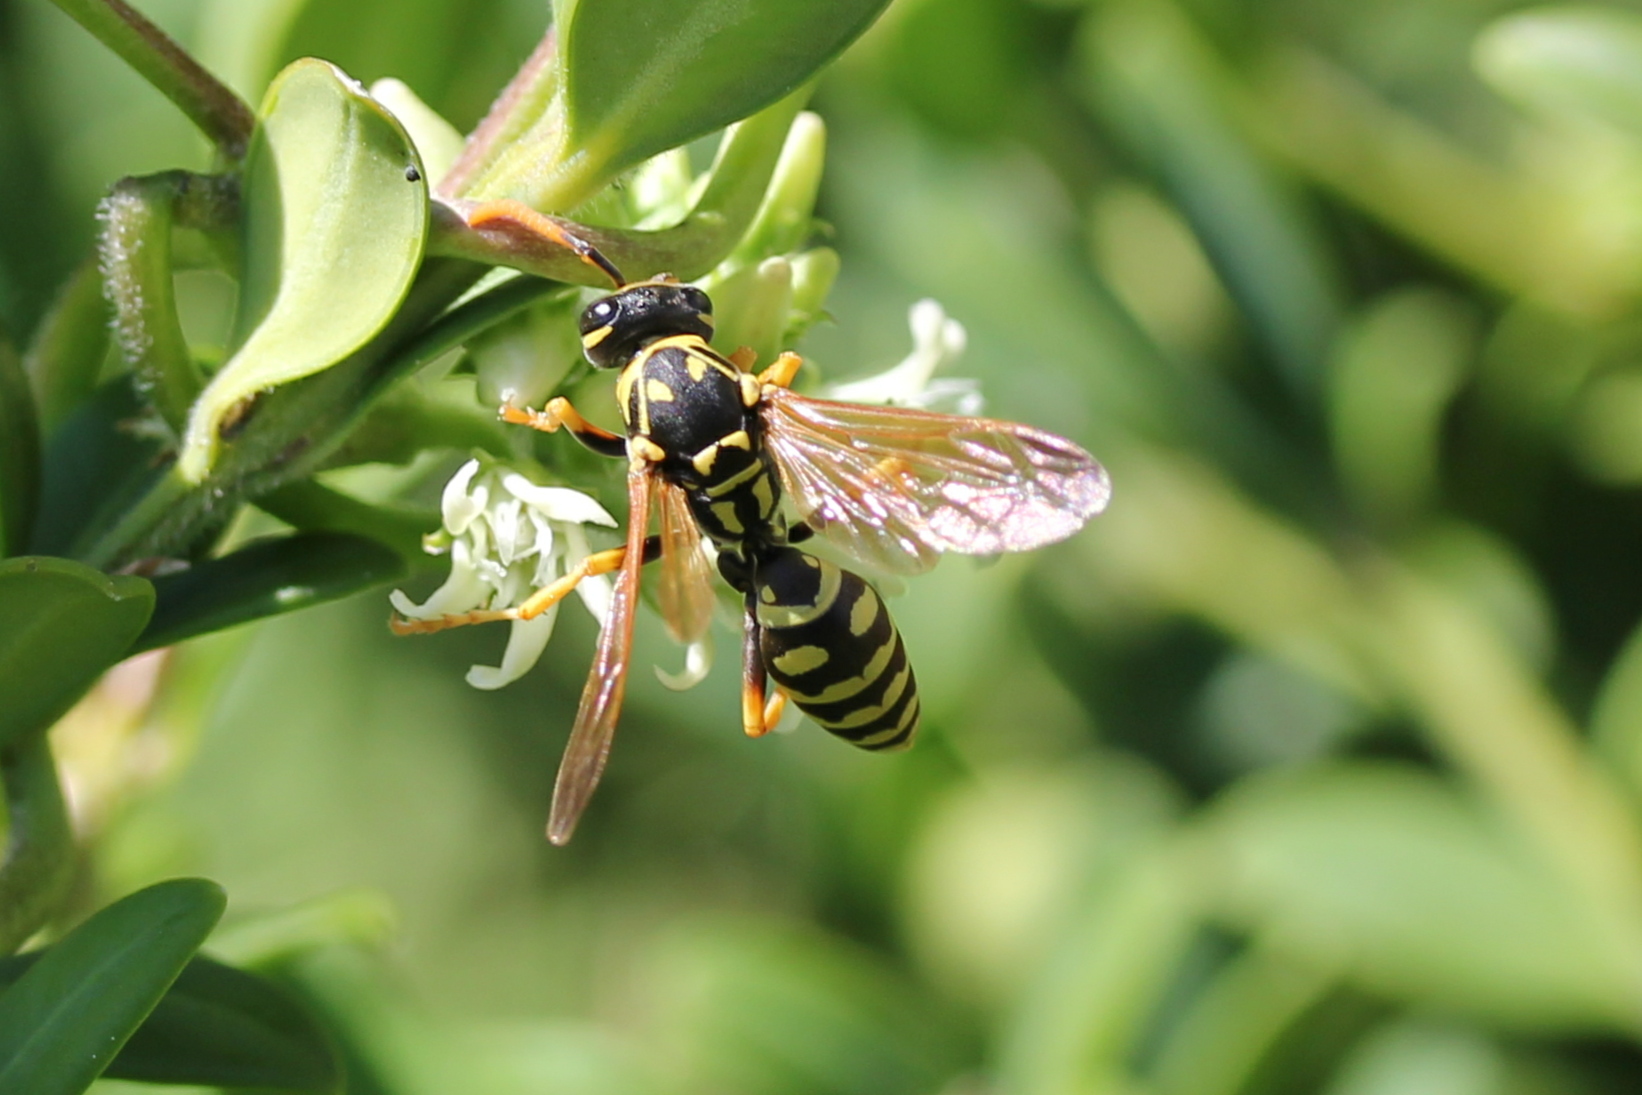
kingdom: Animalia
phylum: Arthropoda
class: Insecta
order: Hymenoptera
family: Eumenidae
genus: Polistes
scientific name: Polistes dominula
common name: Paper wasp
